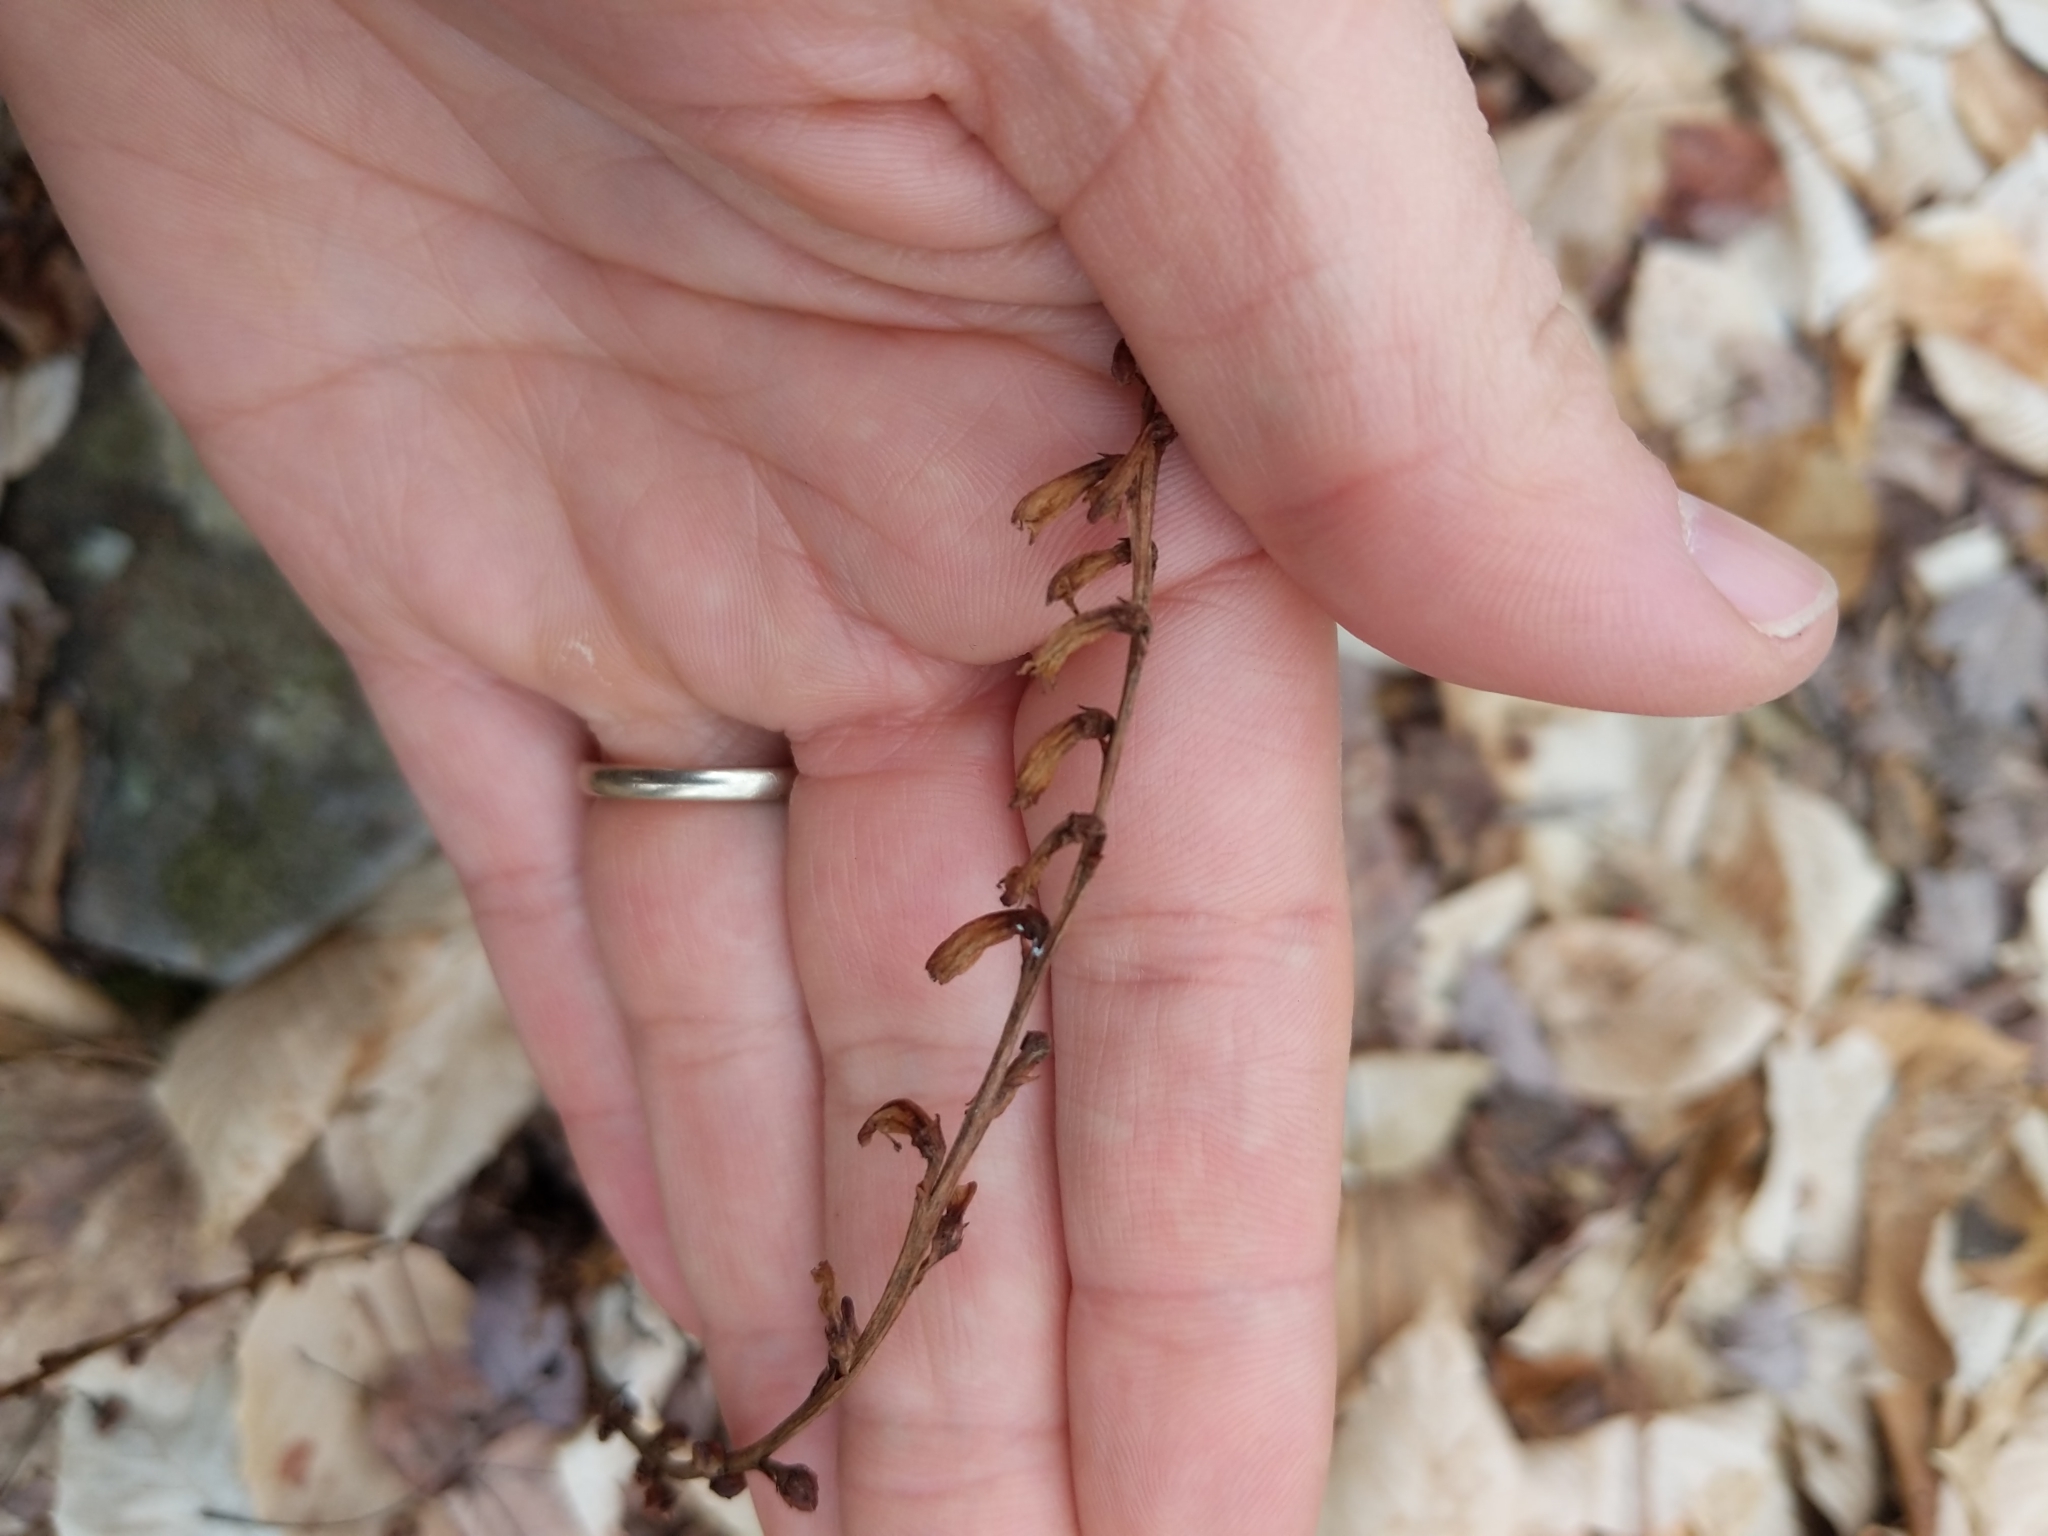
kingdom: Plantae
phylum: Tracheophyta
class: Magnoliopsida
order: Lamiales
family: Orobanchaceae
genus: Epifagus
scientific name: Epifagus virginiana
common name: Beechdrops
